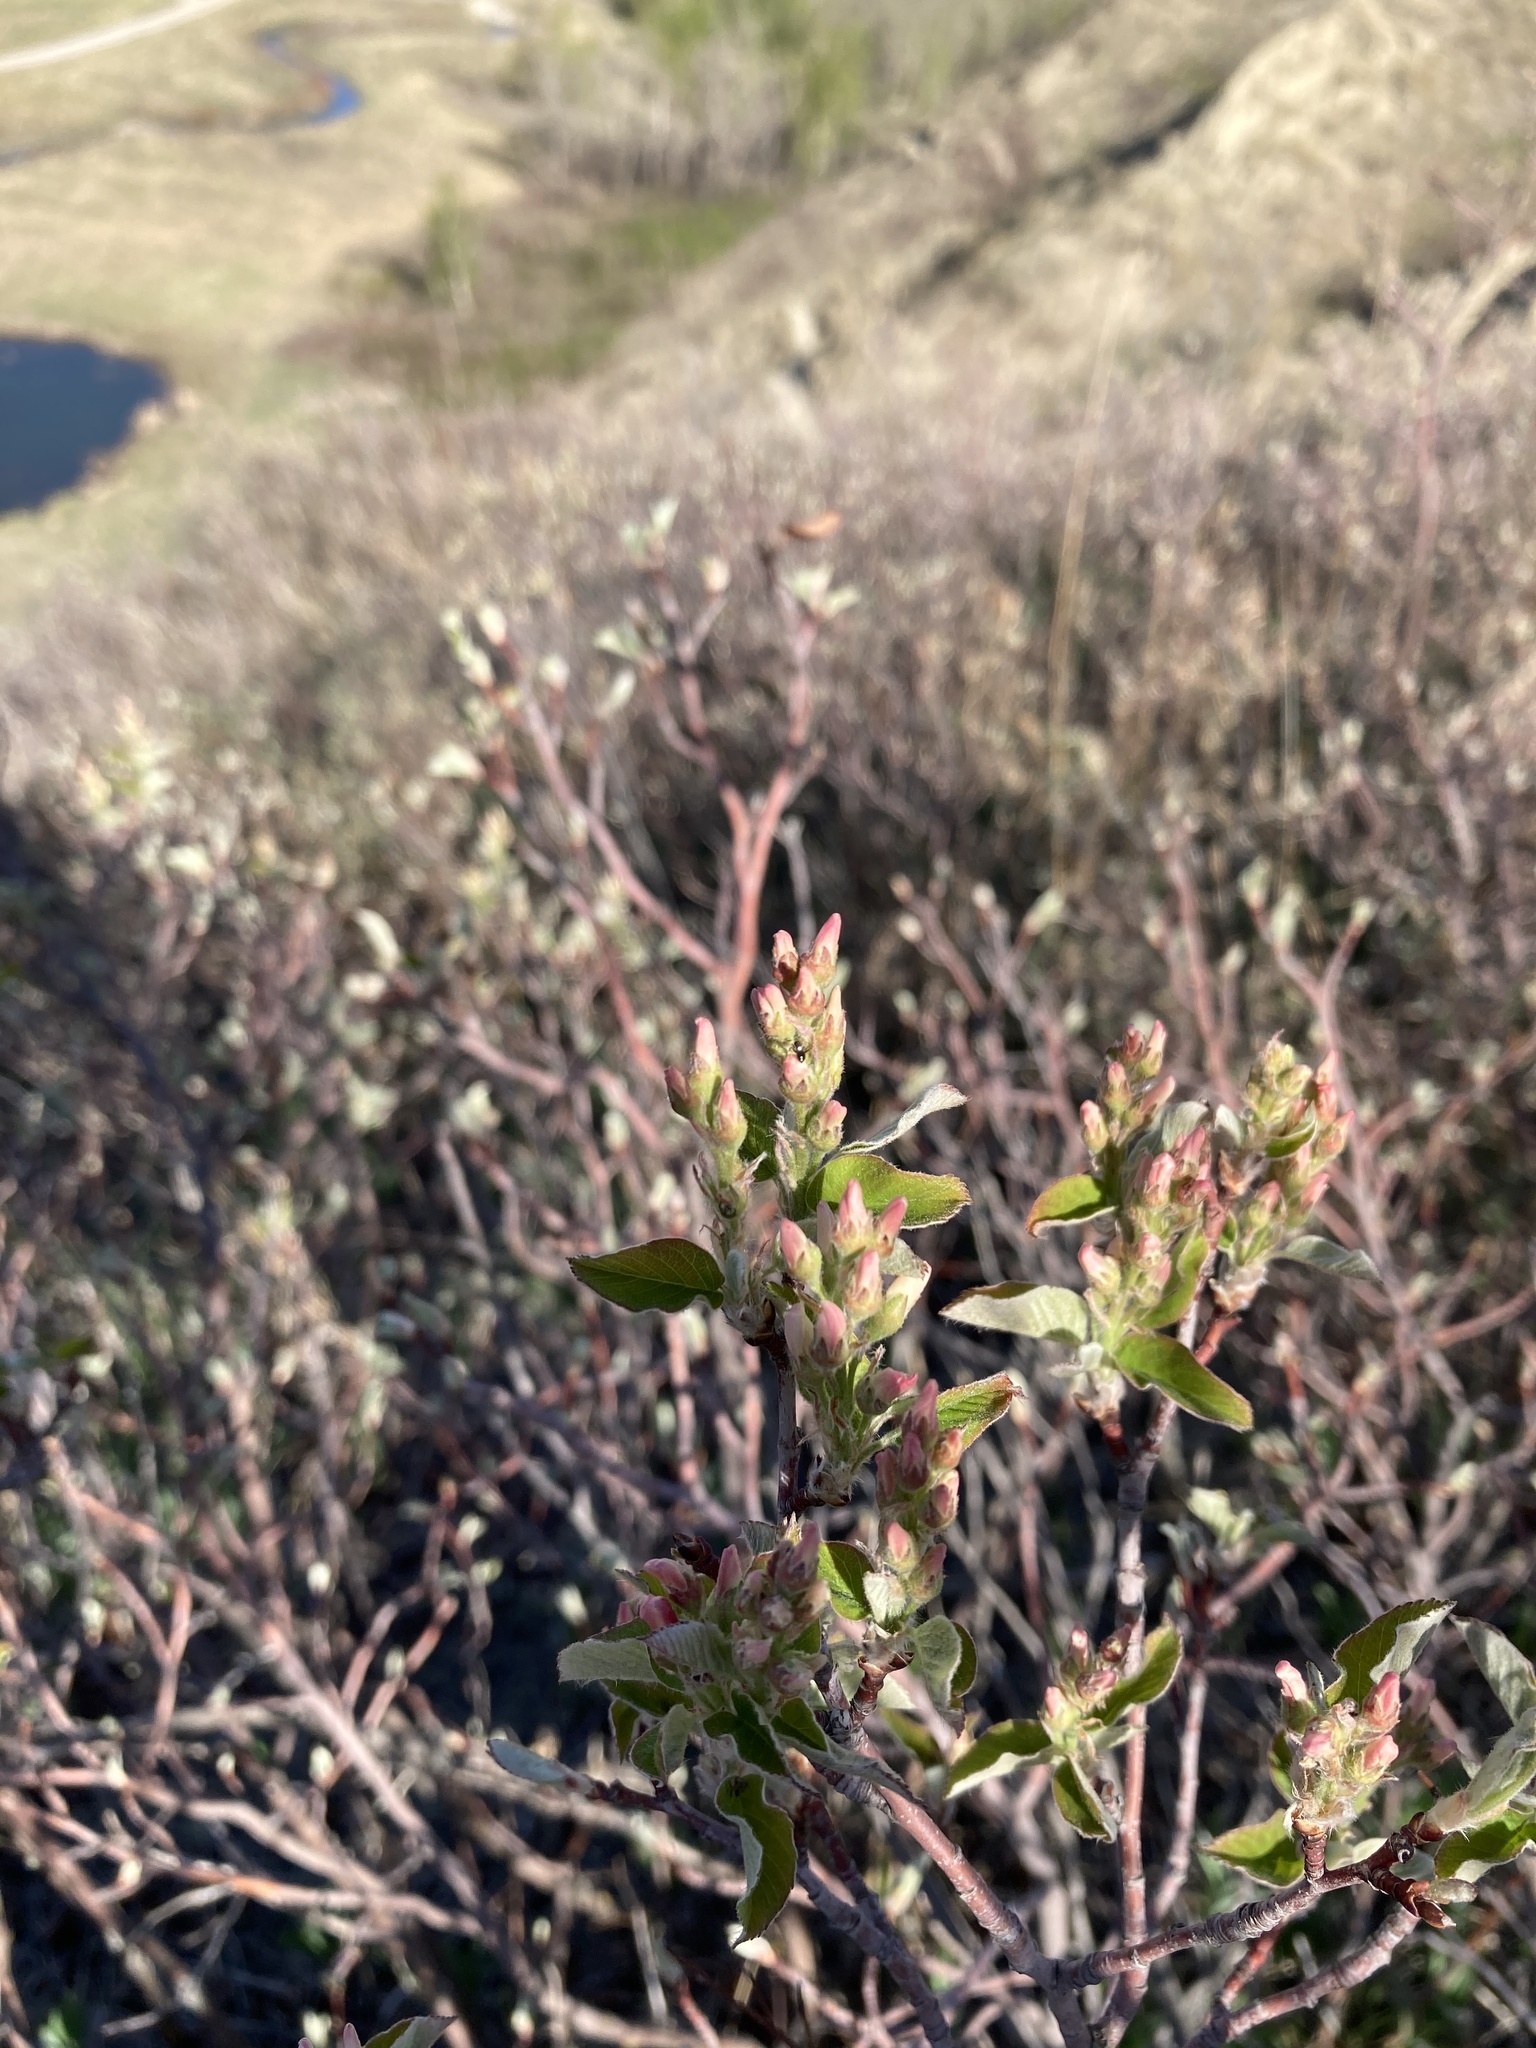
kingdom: Plantae
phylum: Tracheophyta
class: Magnoliopsida
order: Rosales
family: Rosaceae
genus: Amelanchier
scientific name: Amelanchier alnifolia
